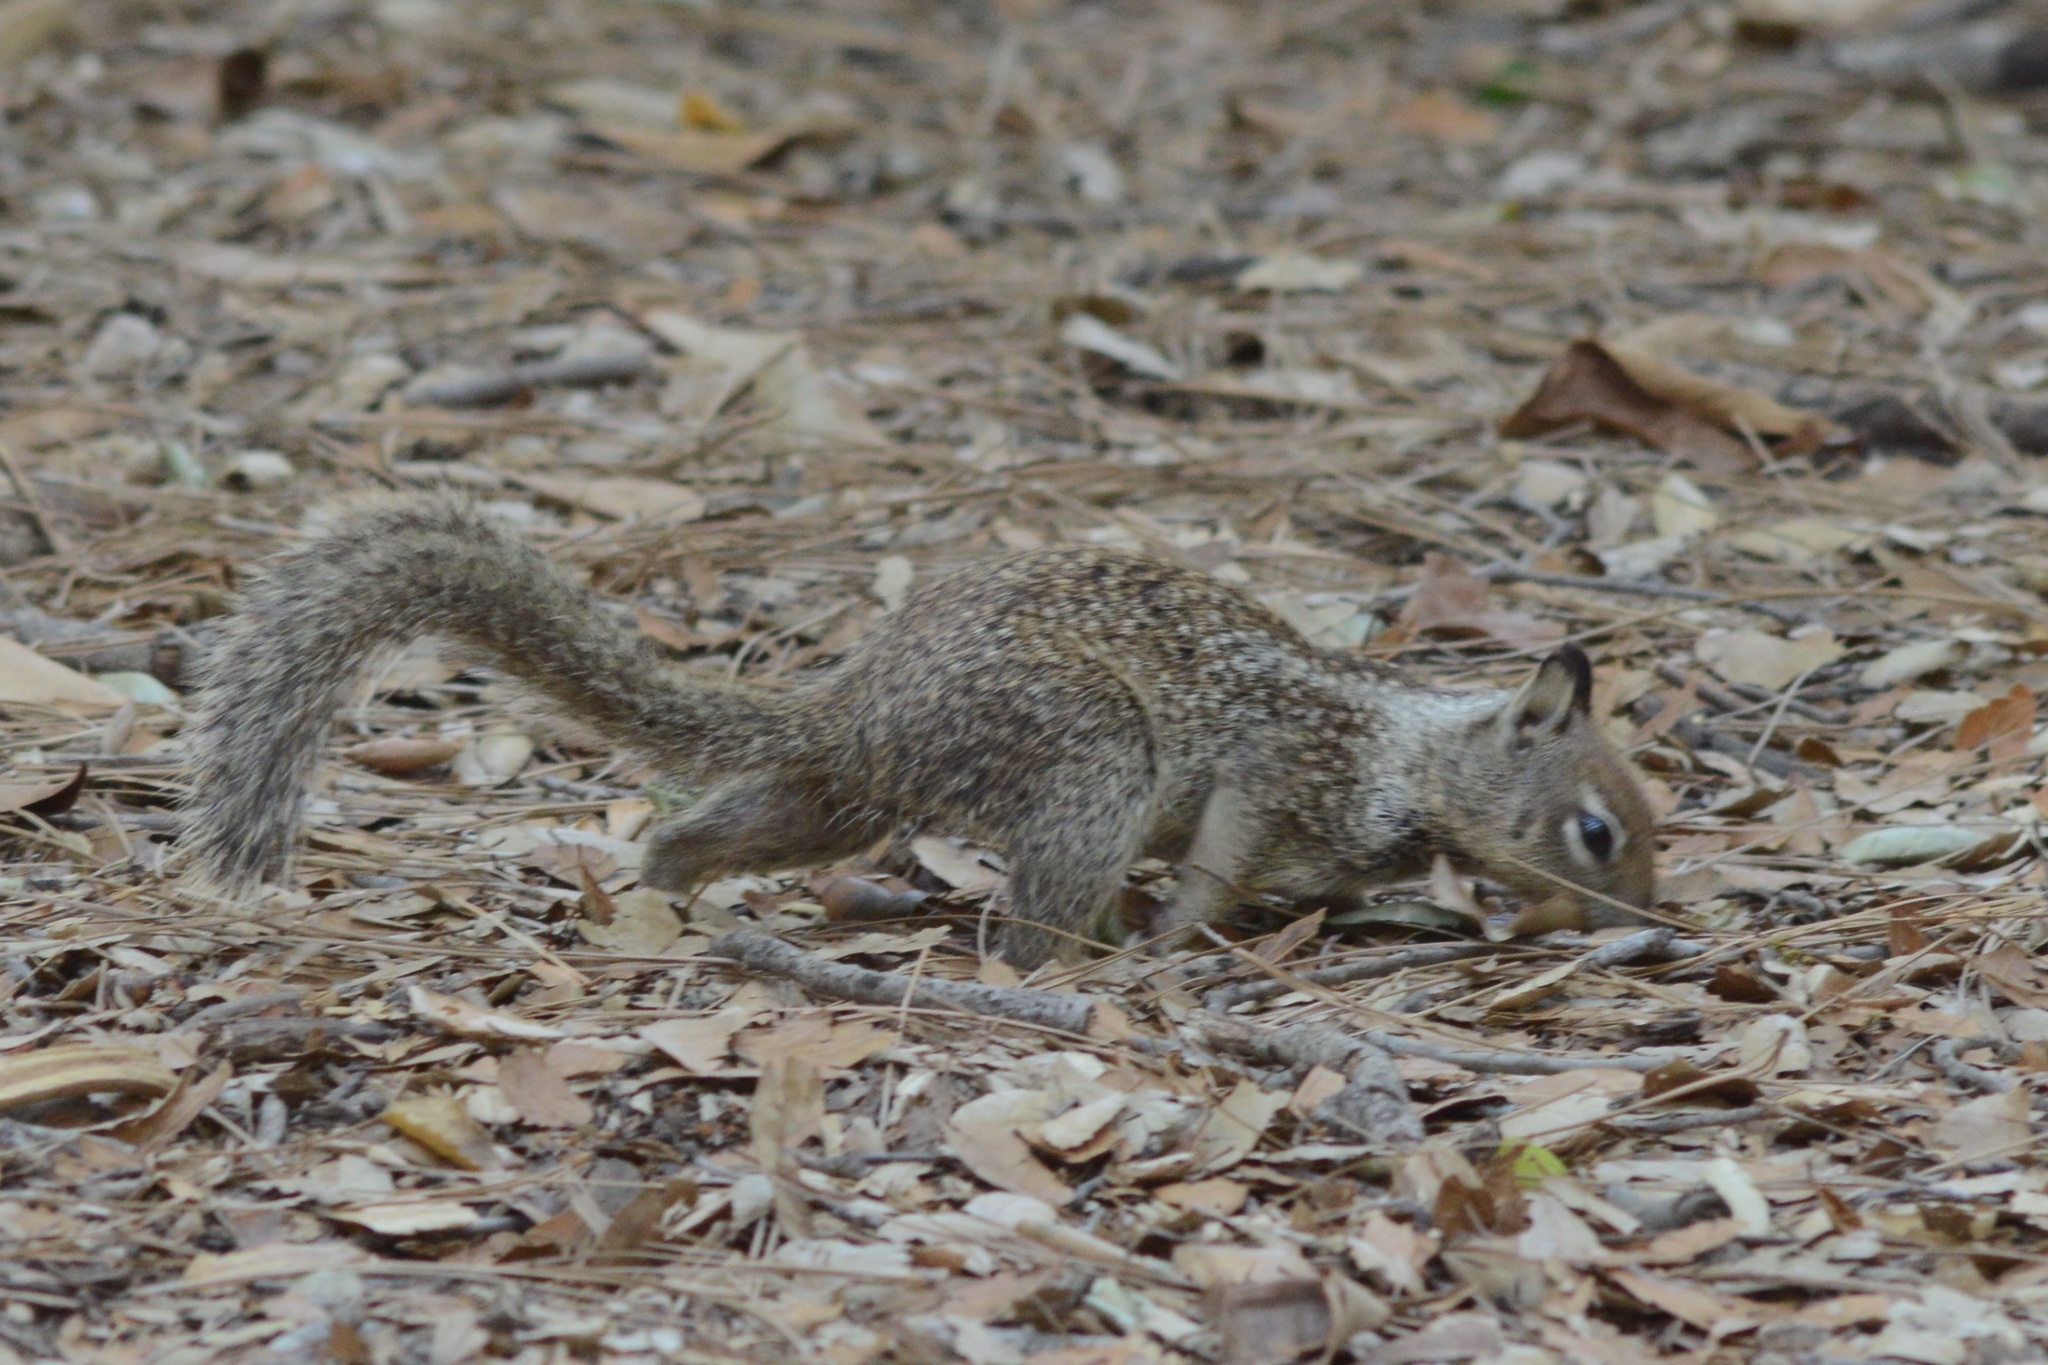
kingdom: Animalia
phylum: Chordata
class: Mammalia
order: Rodentia
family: Sciuridae
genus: Otospermophilus
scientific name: Otospermophilus beecheyi
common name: California ground squirrel
